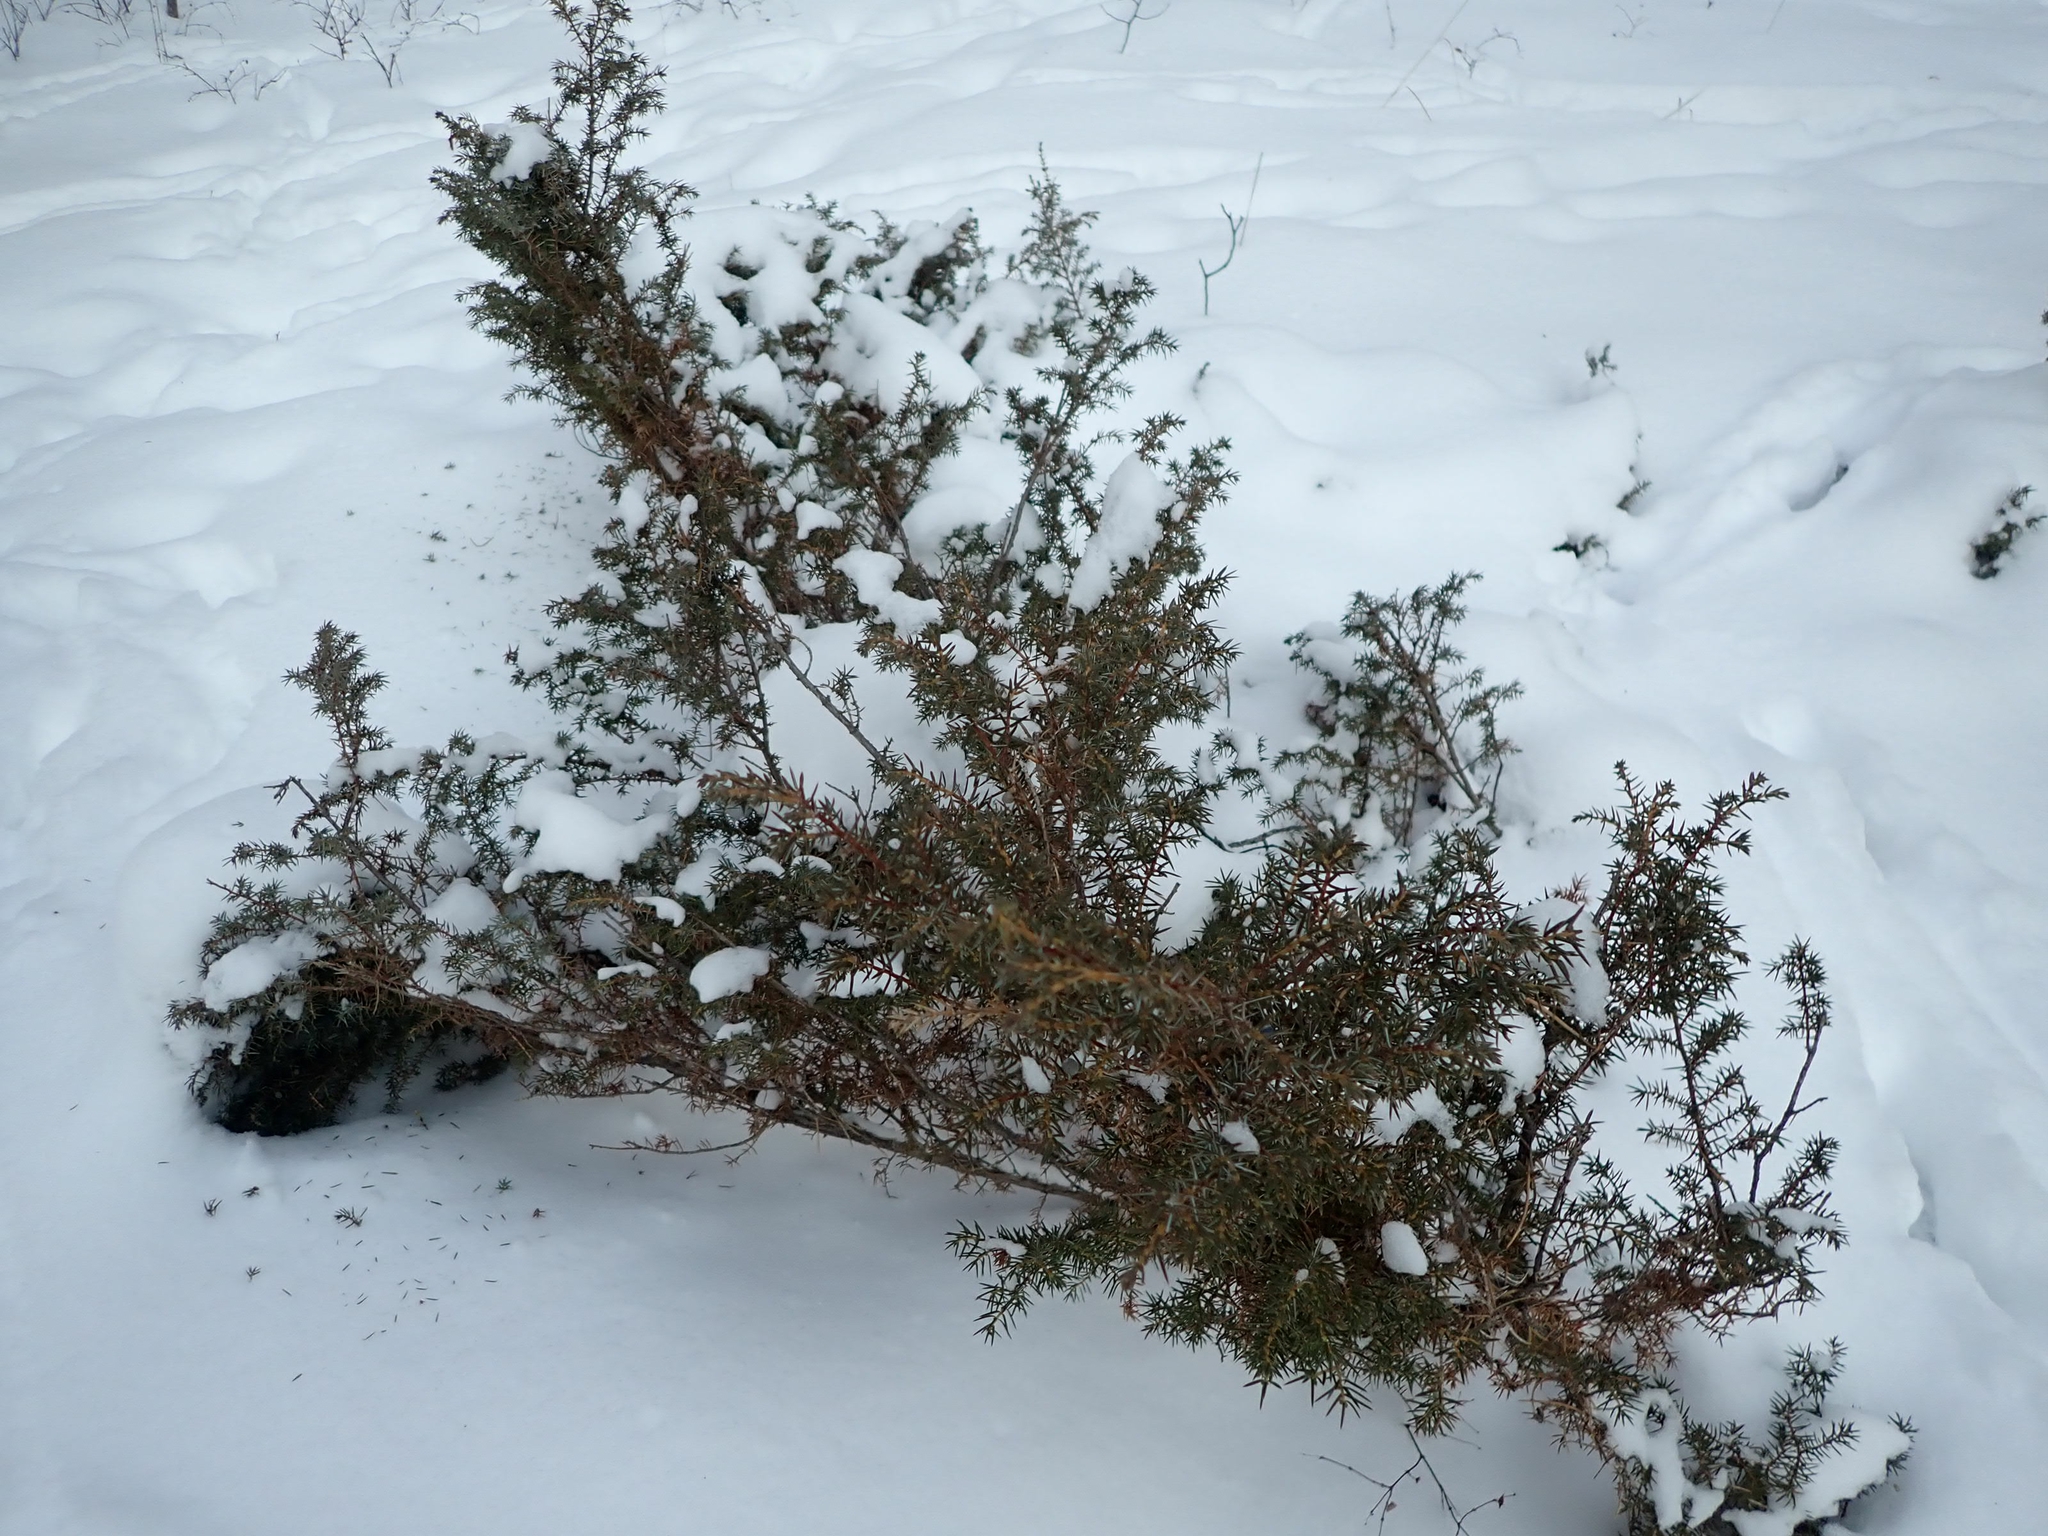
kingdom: Plantae
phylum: Tracheophyta
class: Pinopsida
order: Pinales
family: Cupressaceae
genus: Juniperus
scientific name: Juniperus communis
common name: Common juniper
